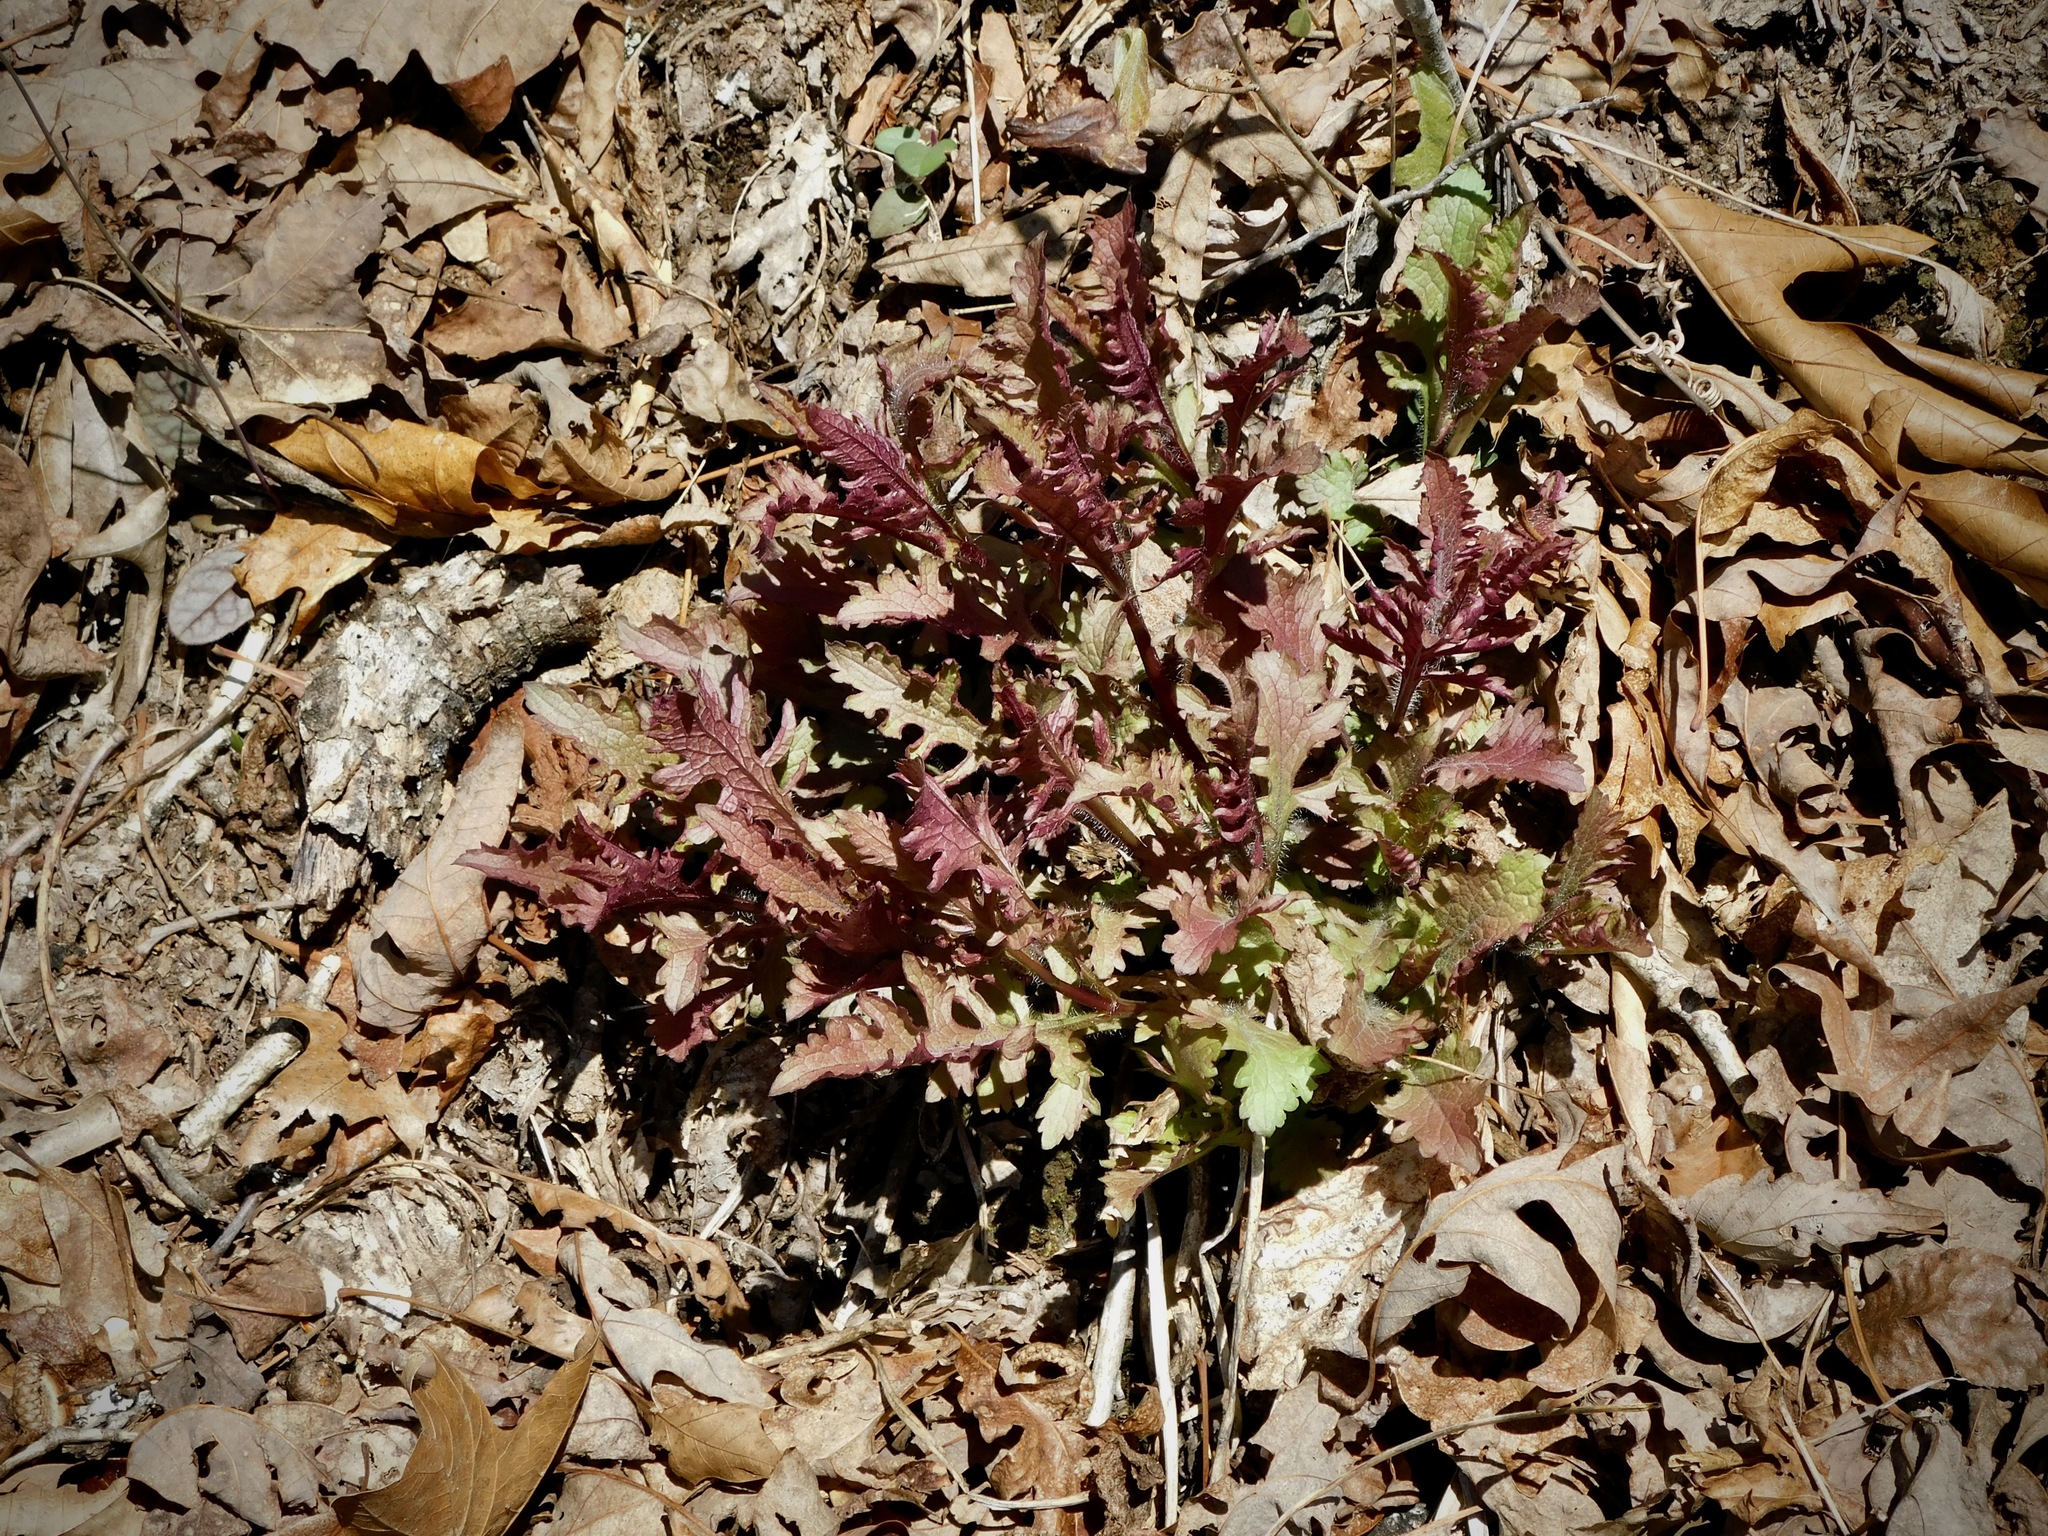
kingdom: Plantae
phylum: Tracheophyta
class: Magnoliopsida
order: Lamiales
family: Orobanchaceae
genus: Pedicularis
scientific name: Pedicularis canadensis
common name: Early lousewort
